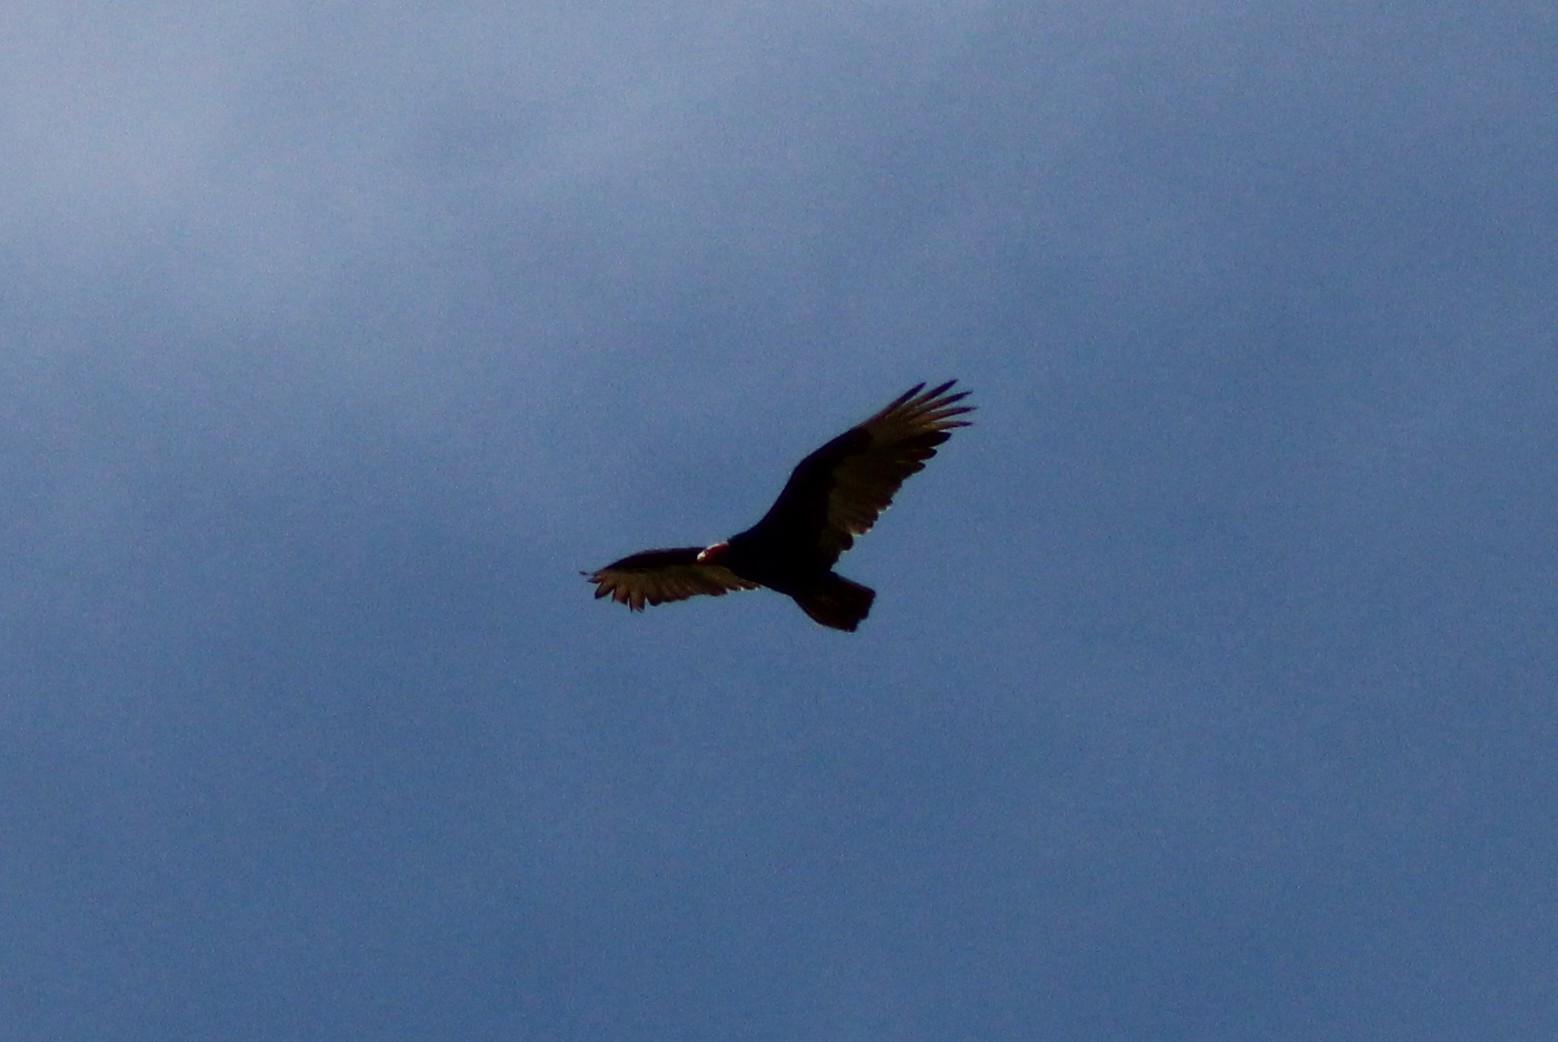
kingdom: Animalia
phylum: Chordata
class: Aves
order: Accipitriformes
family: Cathartidae
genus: Cathartes
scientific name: Cathartes aura
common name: Turkey vulture
